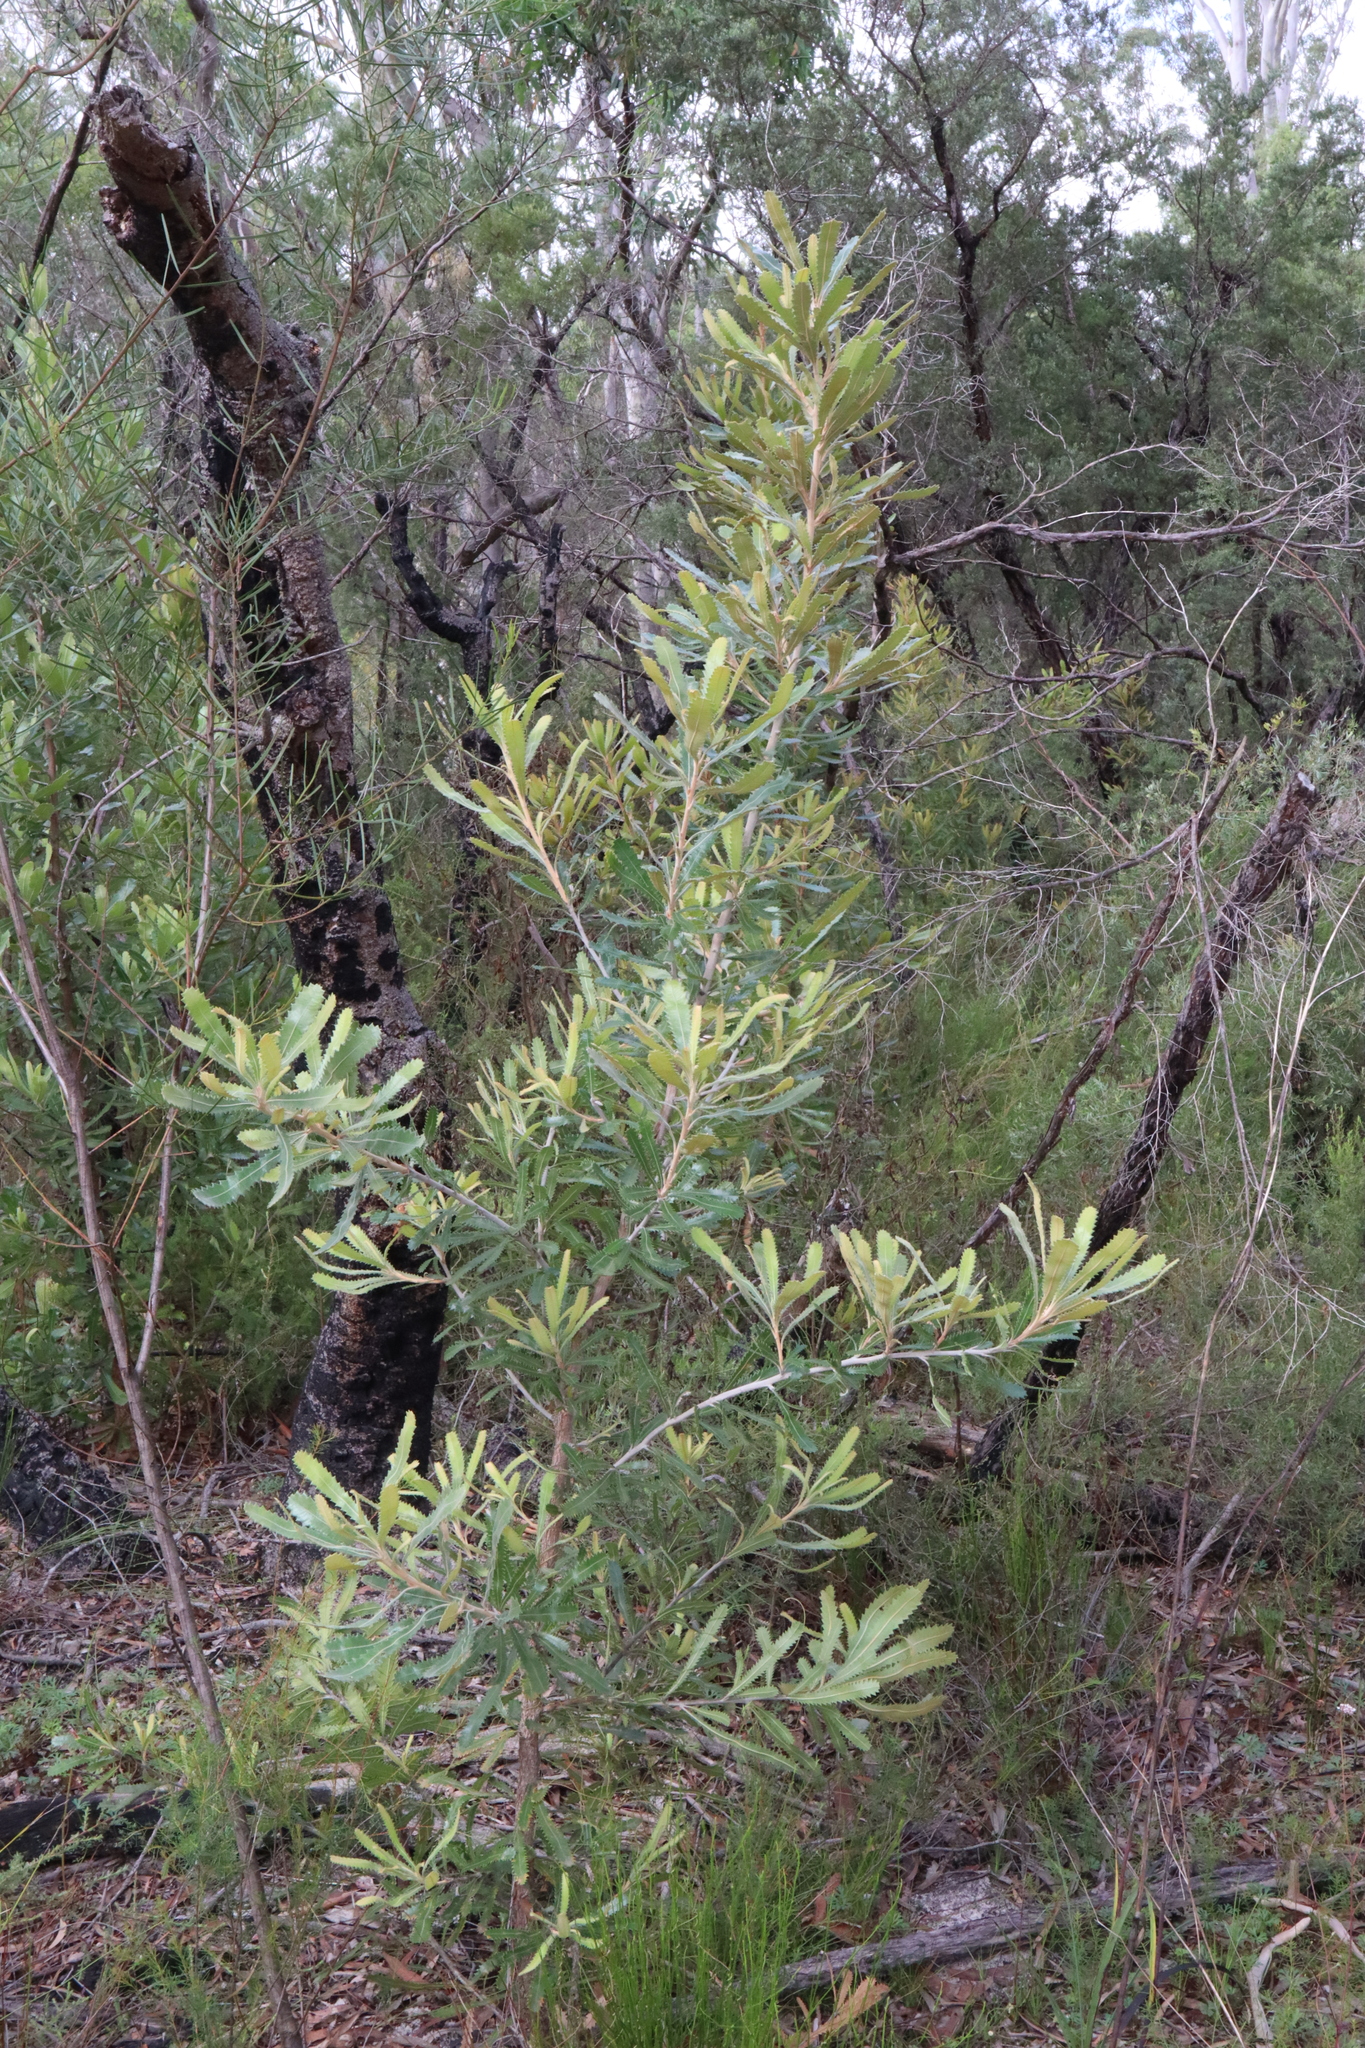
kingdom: Plantae
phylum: Tracheophyta
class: Magnoliopsida
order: Proteales
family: Proteaceae
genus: Banksia
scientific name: Banksia aemula
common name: Wallum banksia
